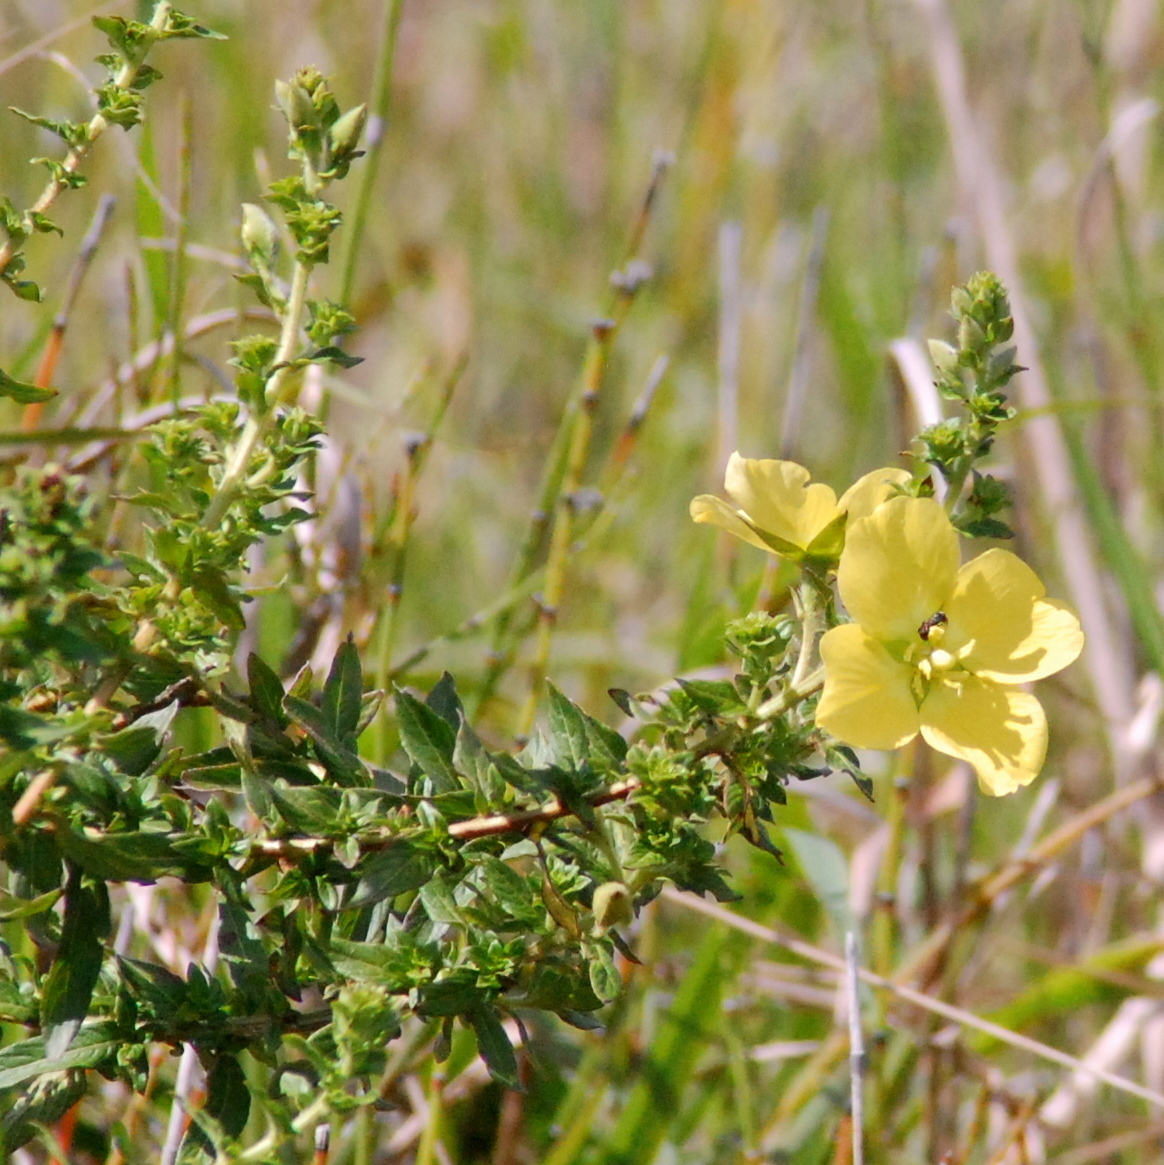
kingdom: Plantae
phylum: Tracheophyta
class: Magnoliopsida
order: Myrtales
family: Onagraceae
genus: Ludwigia
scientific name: Ludwigia multinervia
